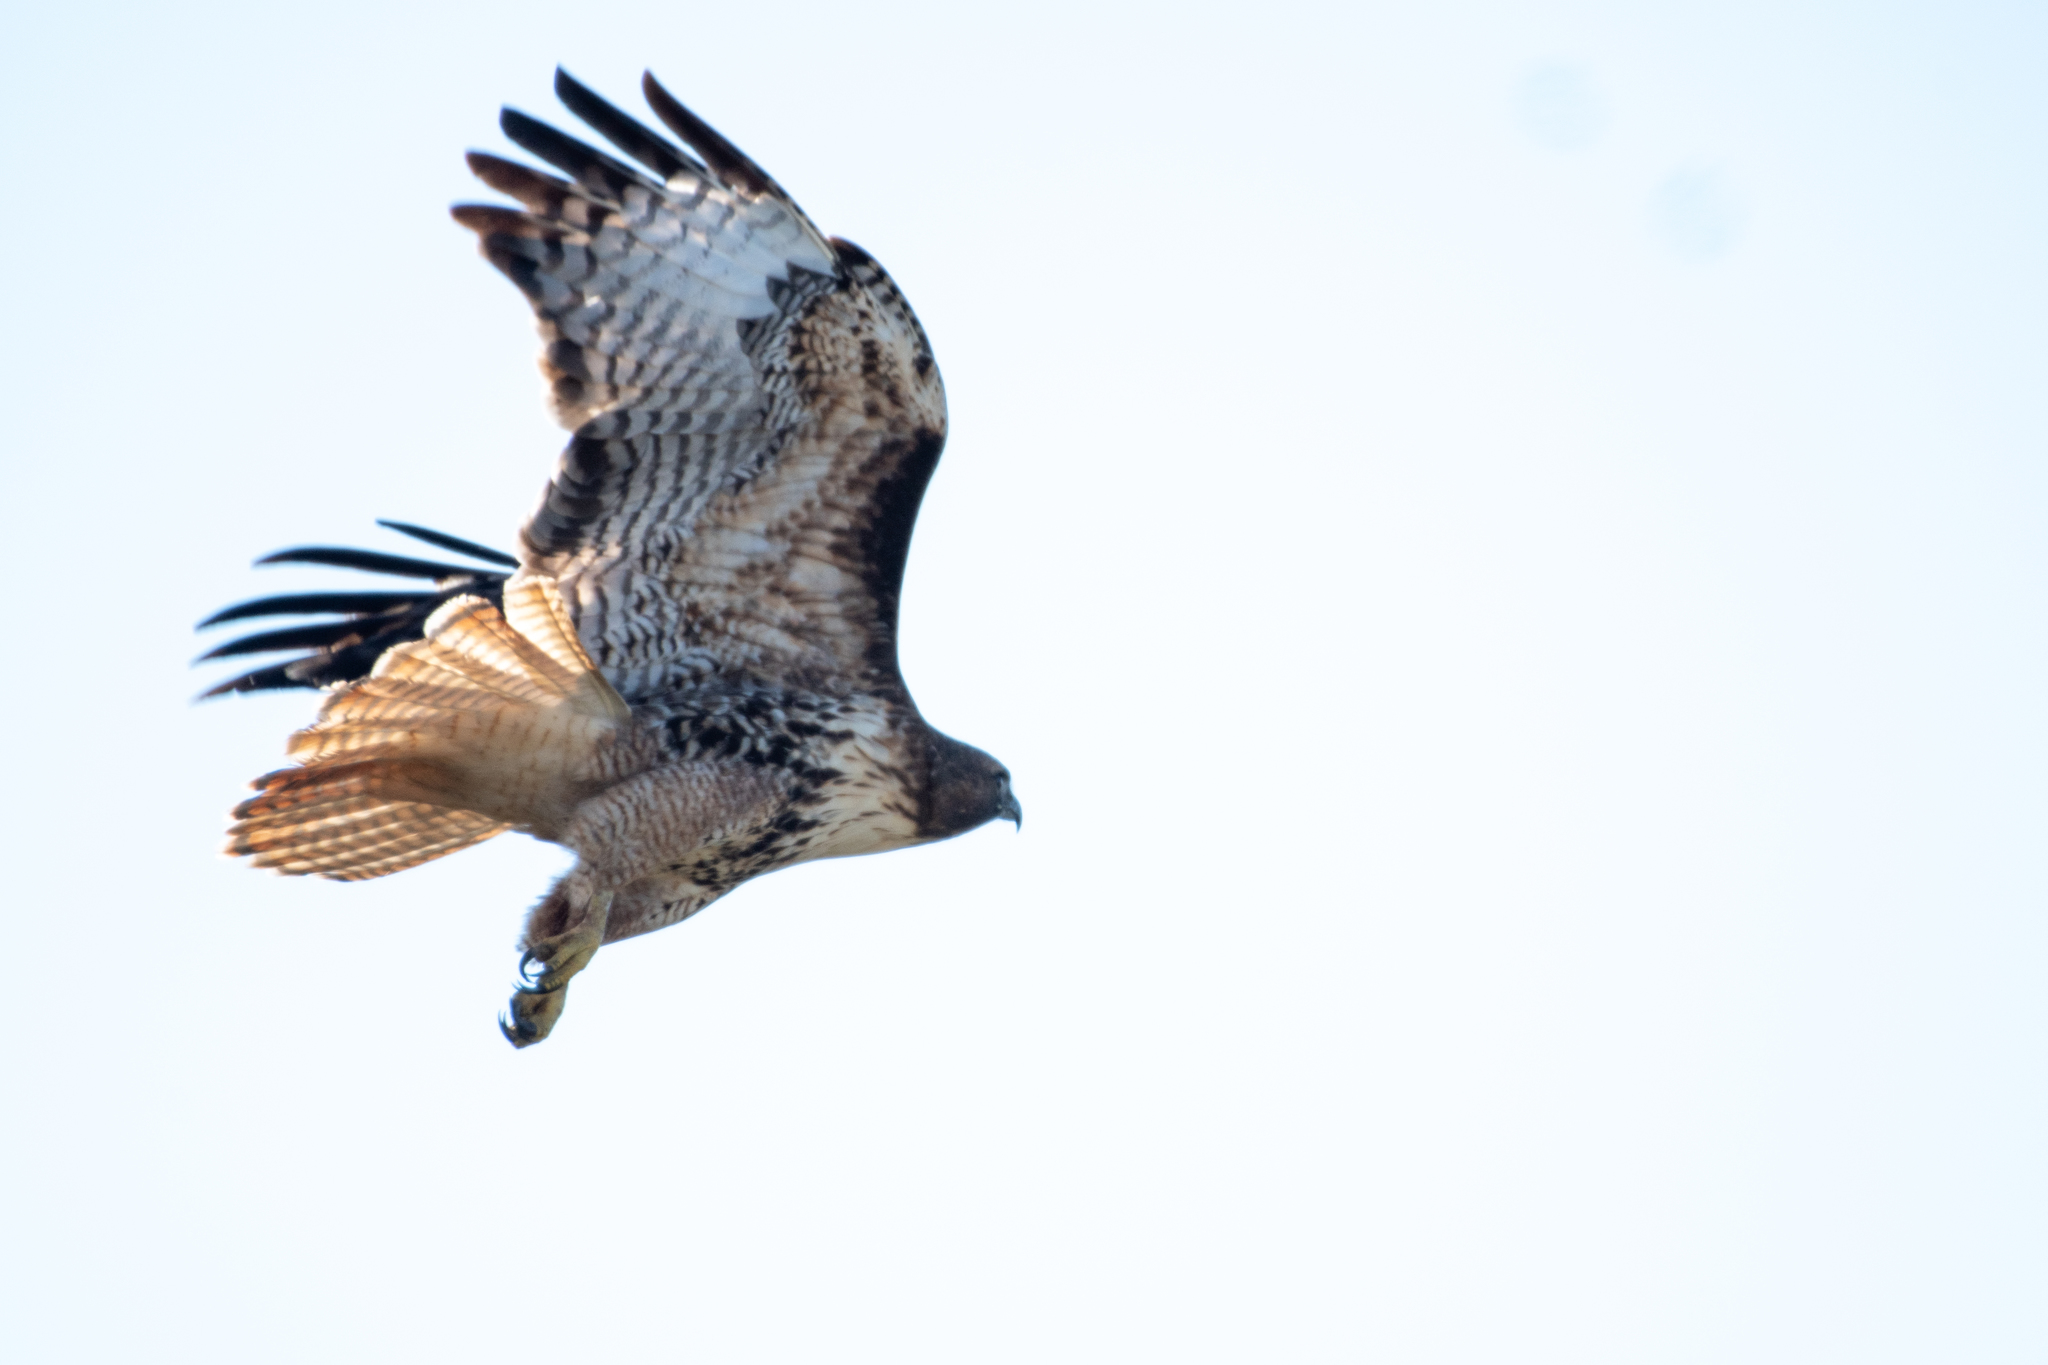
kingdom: Animalia
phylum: Chordata
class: Aves
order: Accipitriformes
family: Accipitridae
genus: Buteo
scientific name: Buteo jamaicensis
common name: Red-tailed hawk
